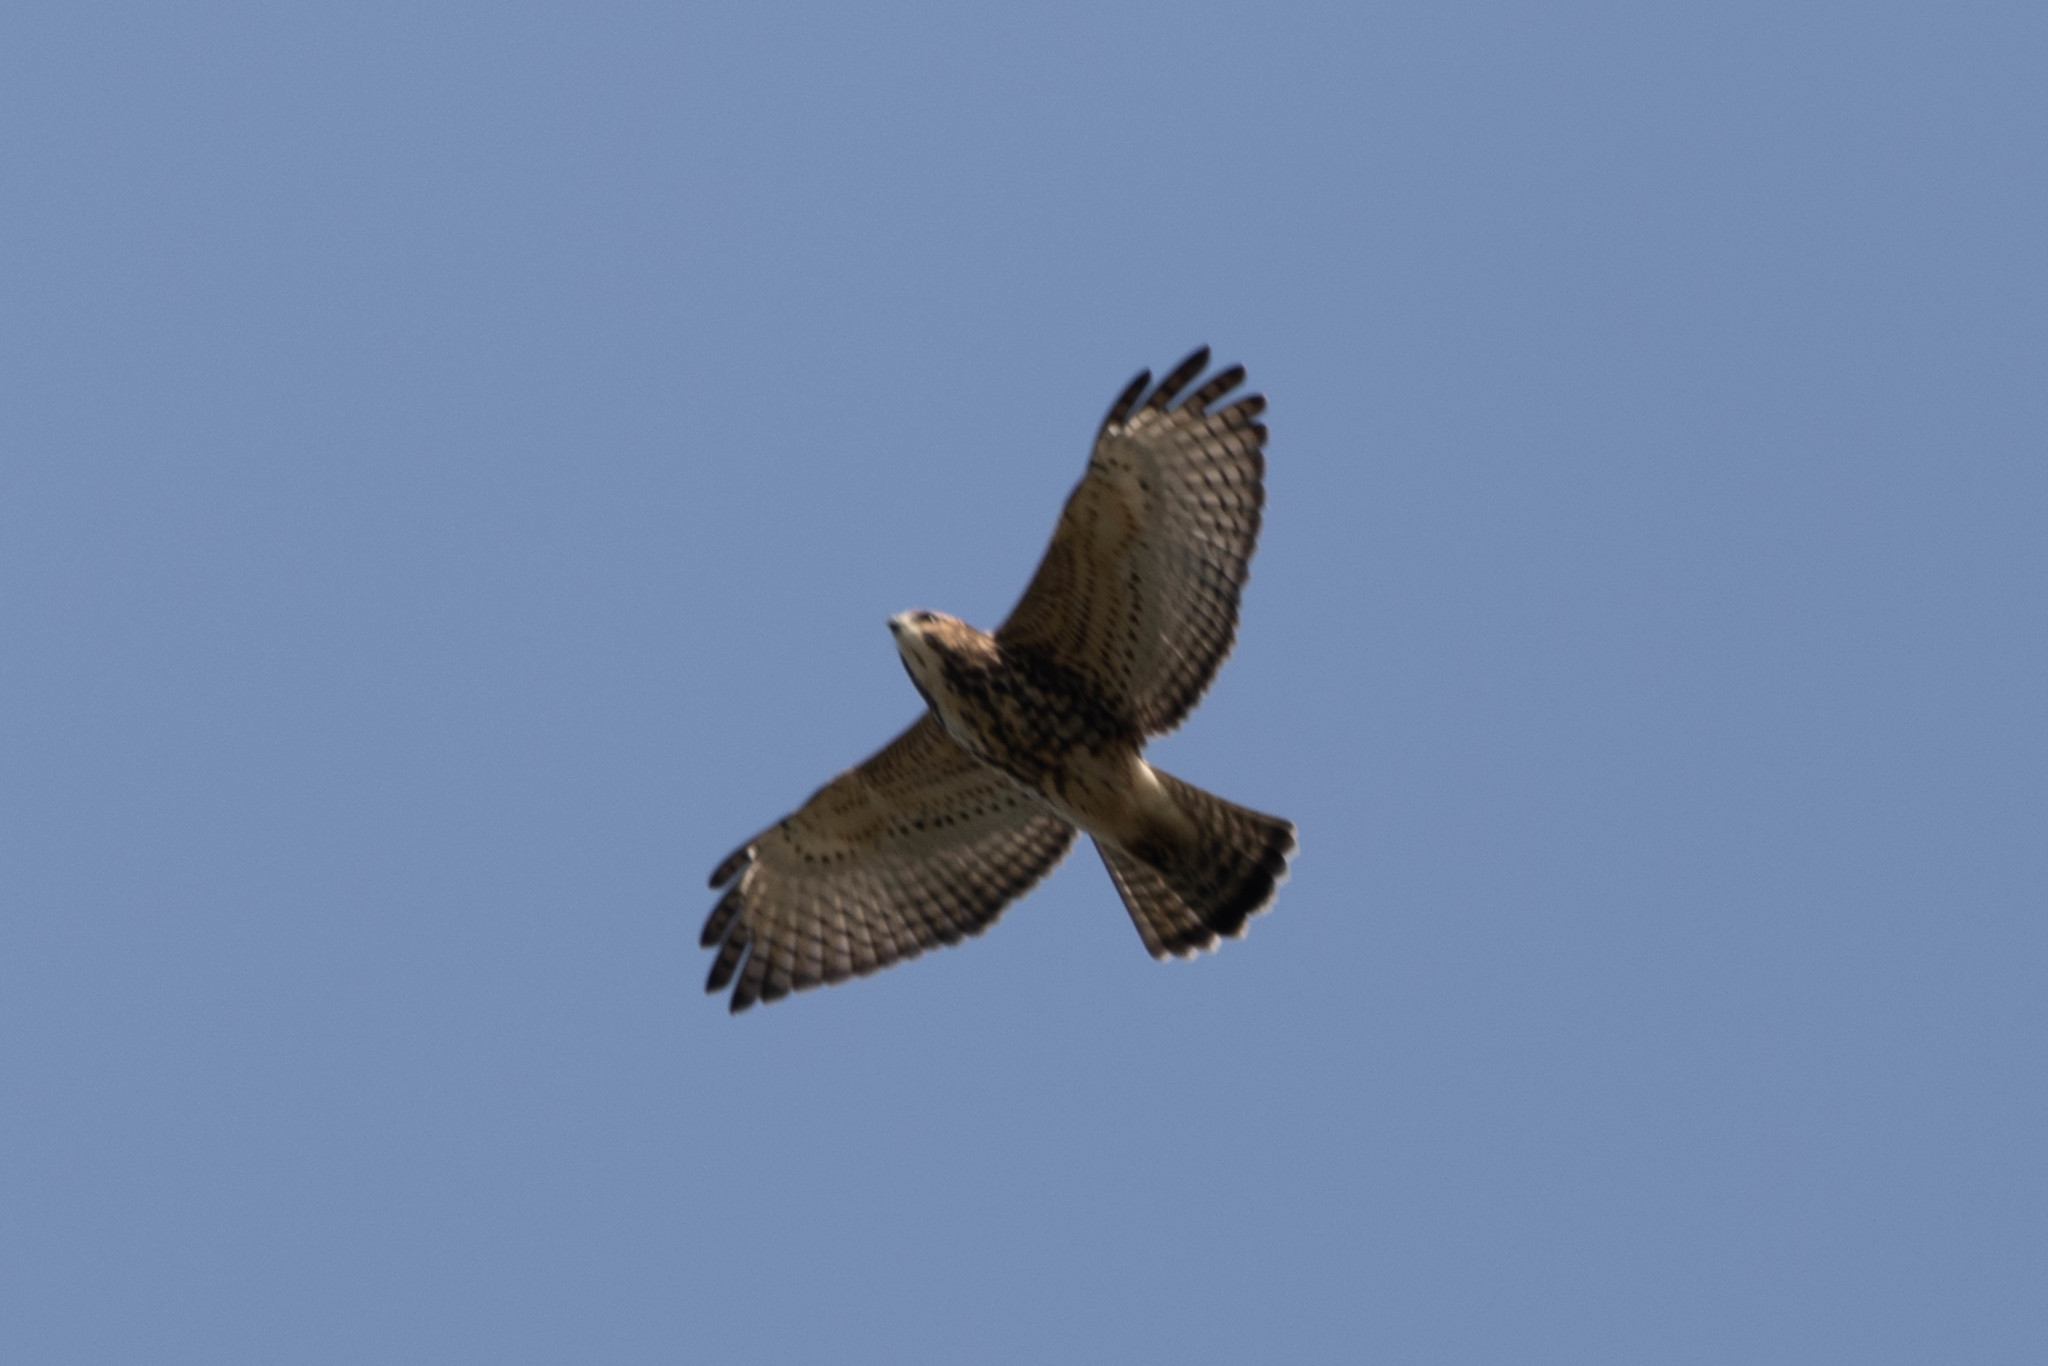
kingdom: Animalia
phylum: Chordata
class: Aves
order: Accipitriformes
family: Accipitridae
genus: Buteo
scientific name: Buteo platypterus
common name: Broad-winged hawk
